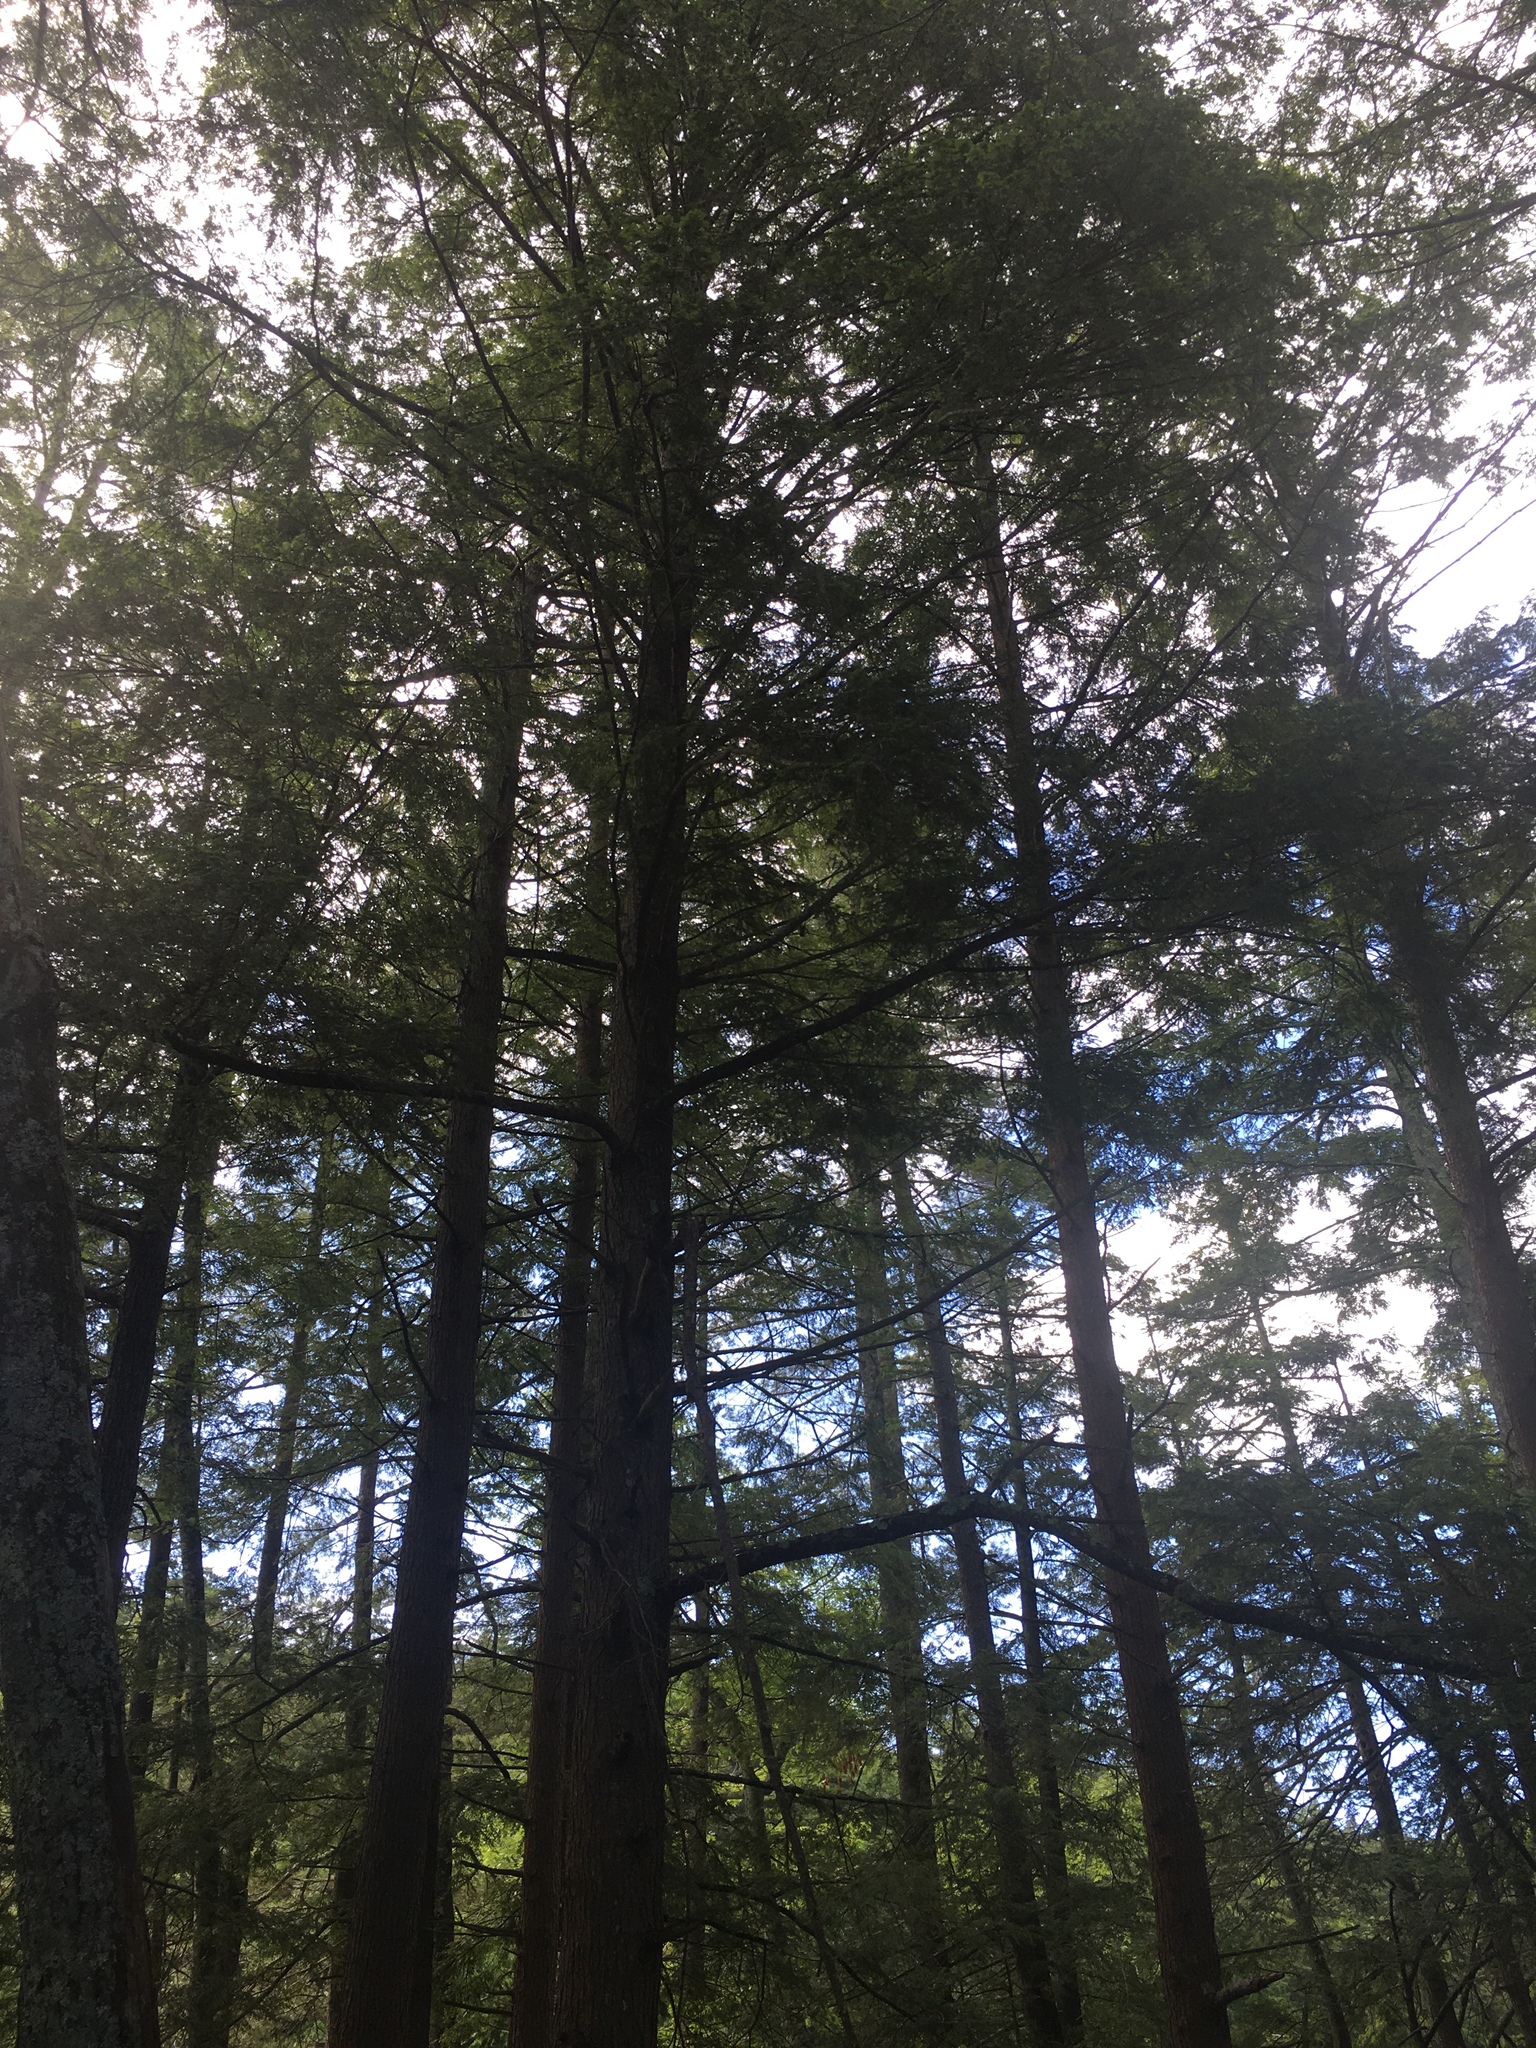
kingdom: Plantae
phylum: Tracheophyta
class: Pinopsida
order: Pinales
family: Pinaceae
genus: Tsuga
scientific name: Tsuga canadensis
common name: Eastern hemlock
